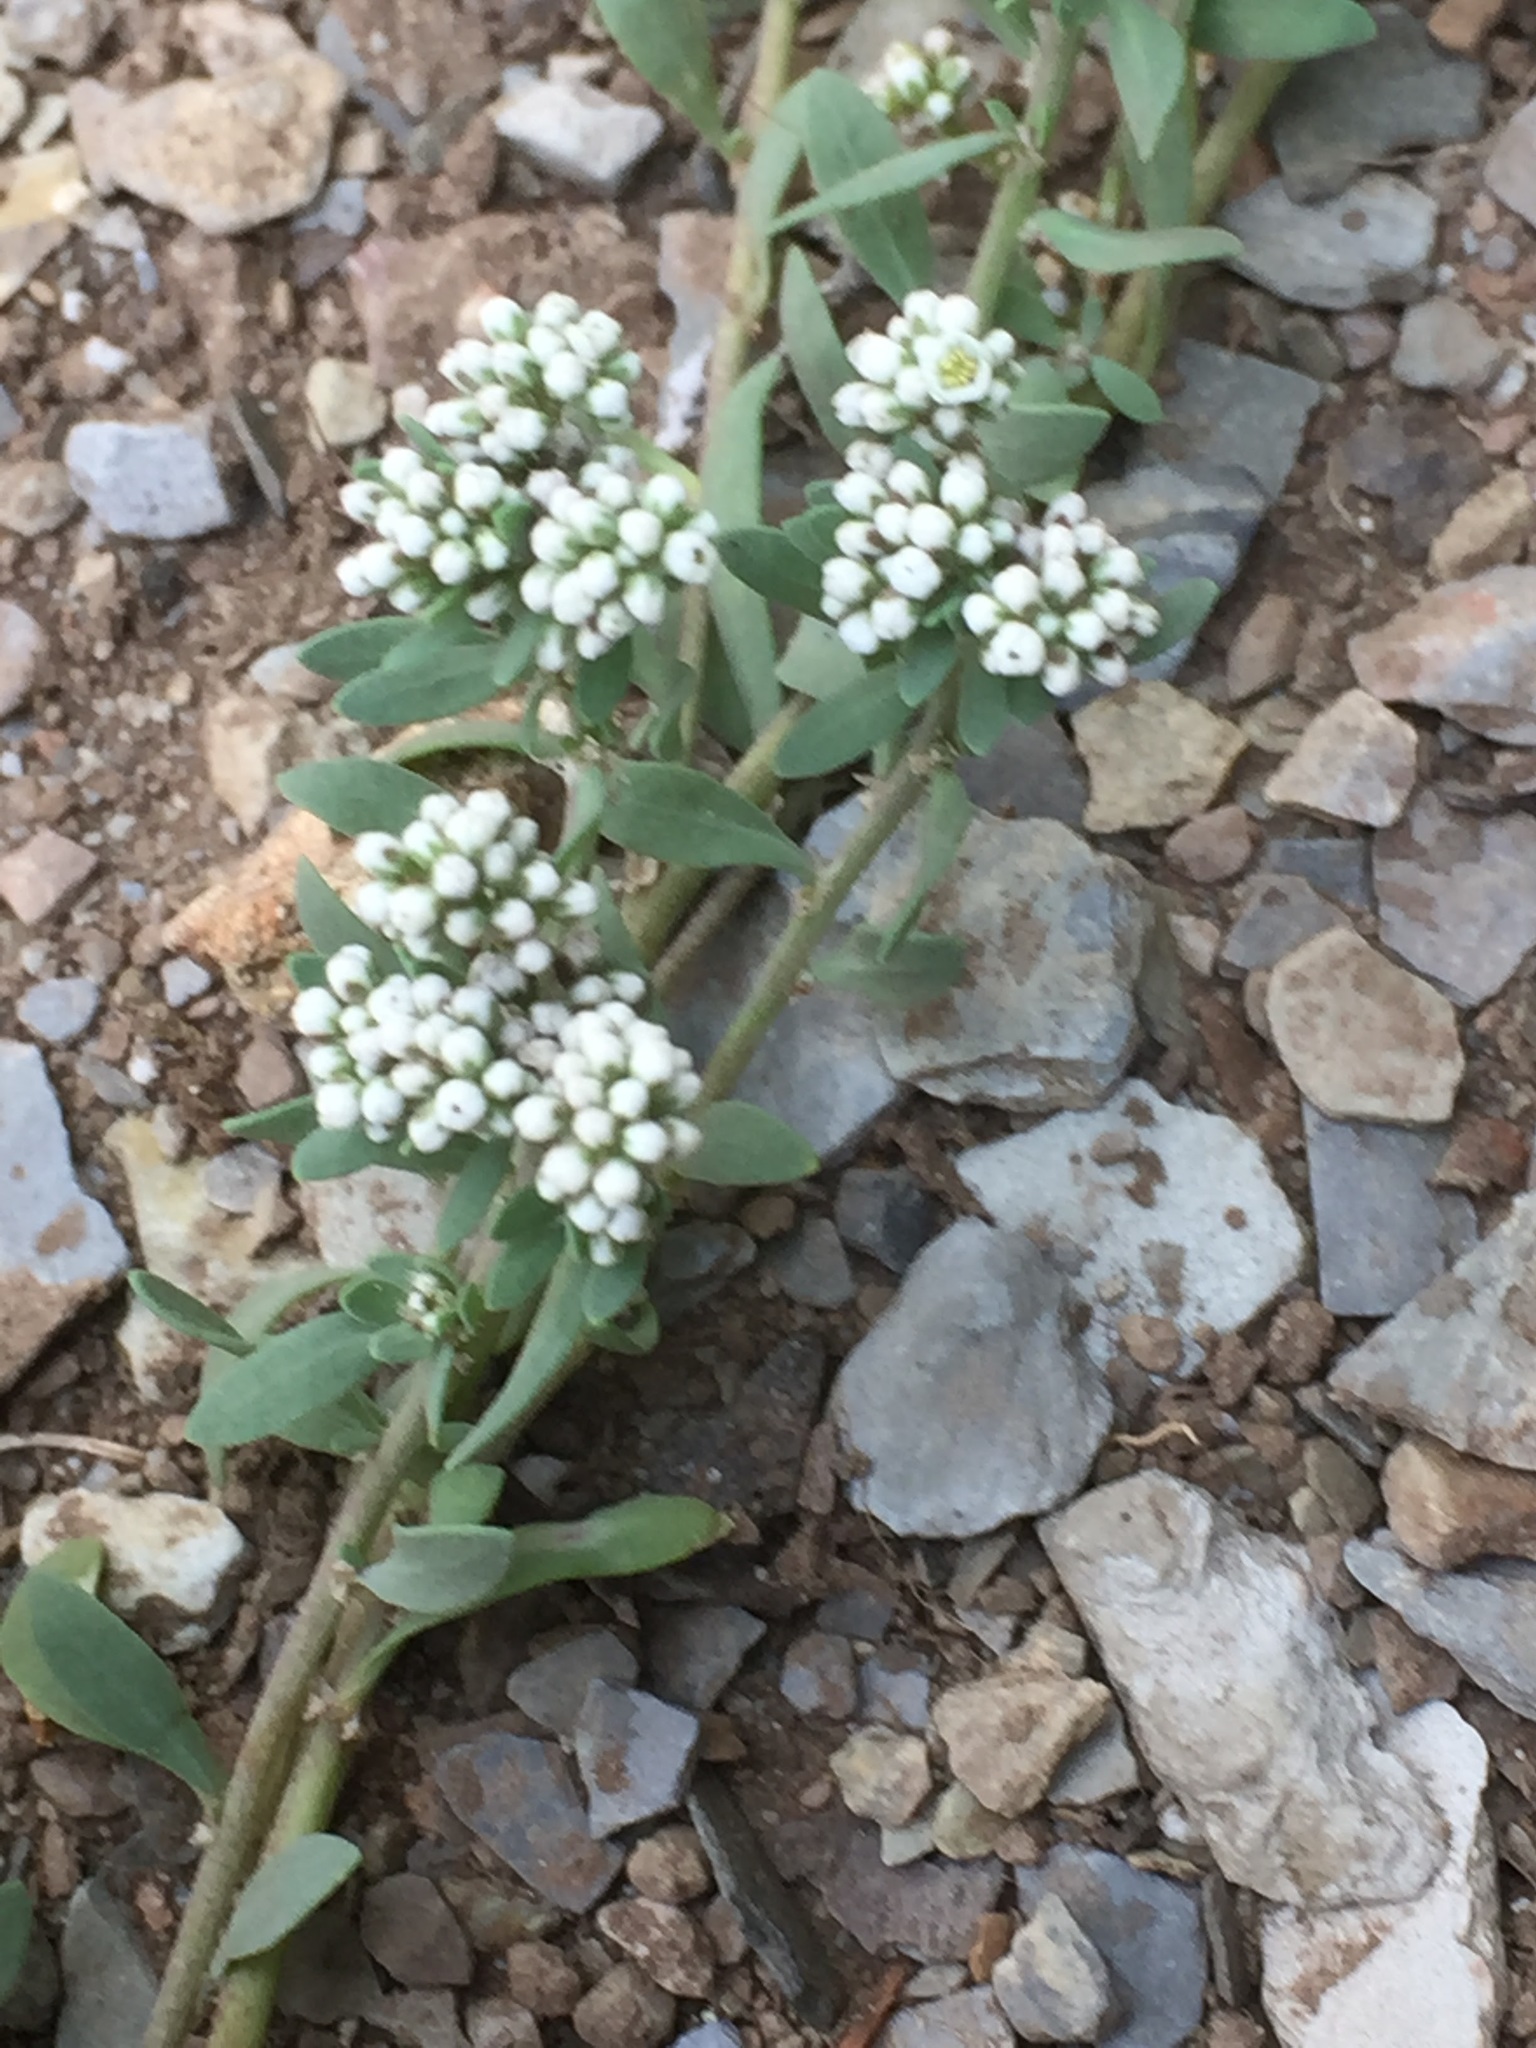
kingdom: Plantae
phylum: Tracheophyta
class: Magnoliopsida
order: Caryophyllales
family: Caryophyllaceae
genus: Corrigiola
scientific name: Corrigiola litoralis
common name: Strapwort
